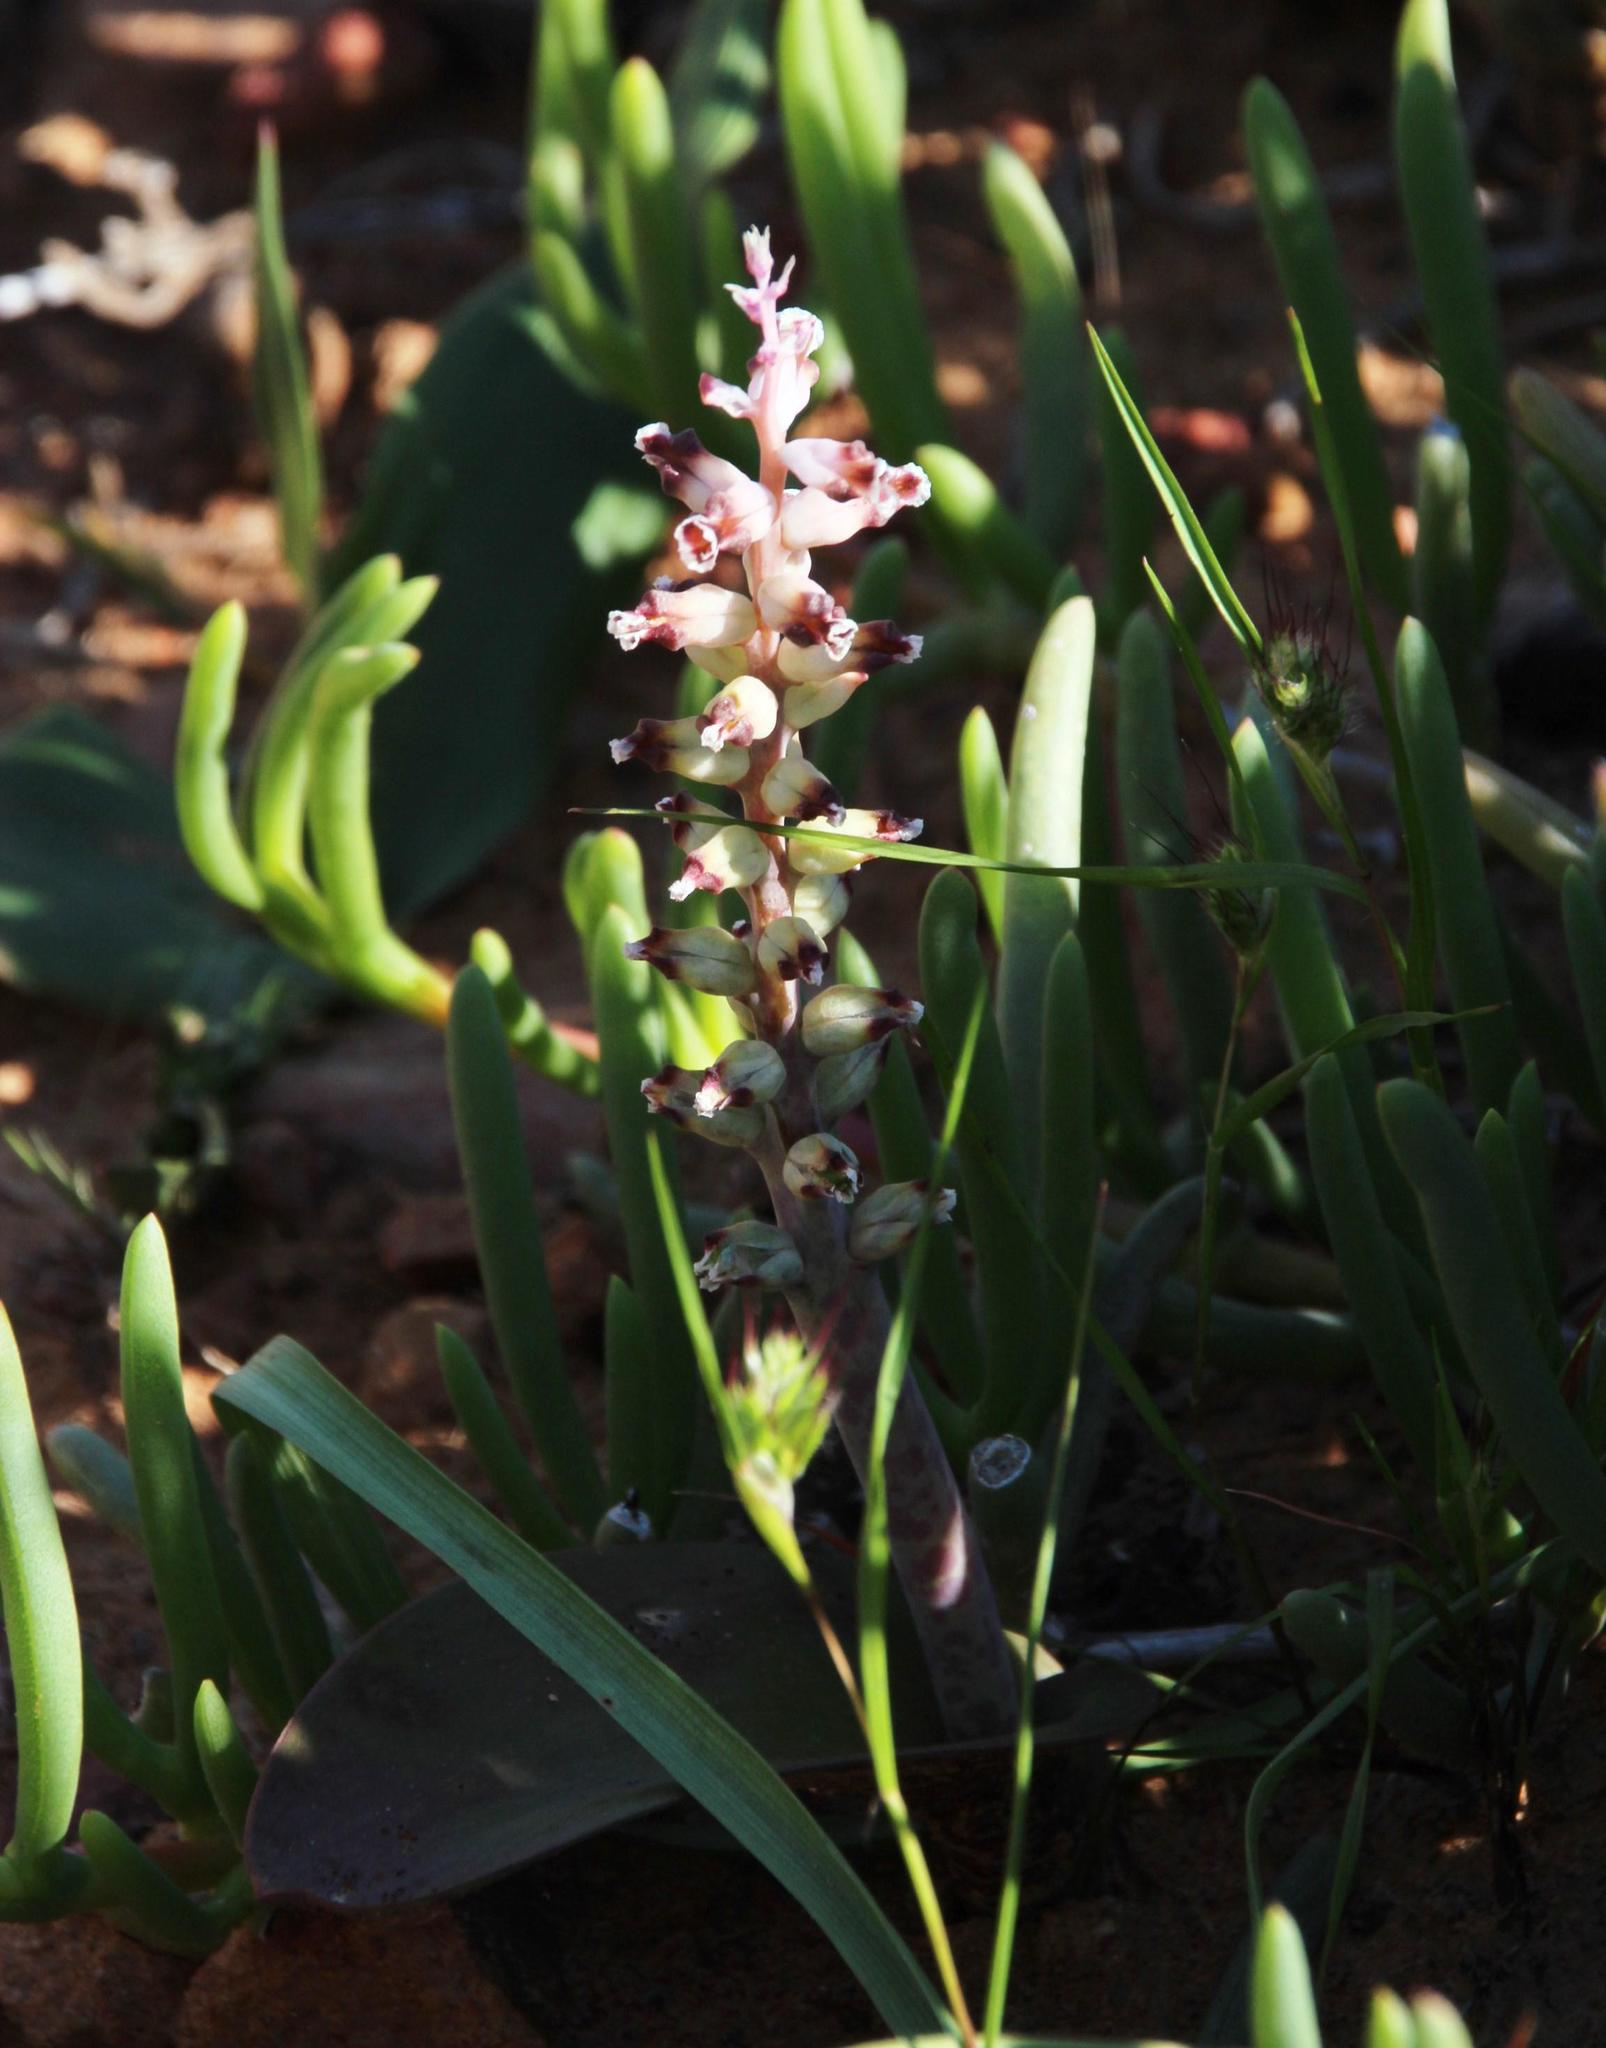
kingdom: Plantae
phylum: Tracheophyta
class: Liliopsida
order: Asparagales
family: Asparagaceae
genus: Lachenalia
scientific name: Lachenalia membranacea
